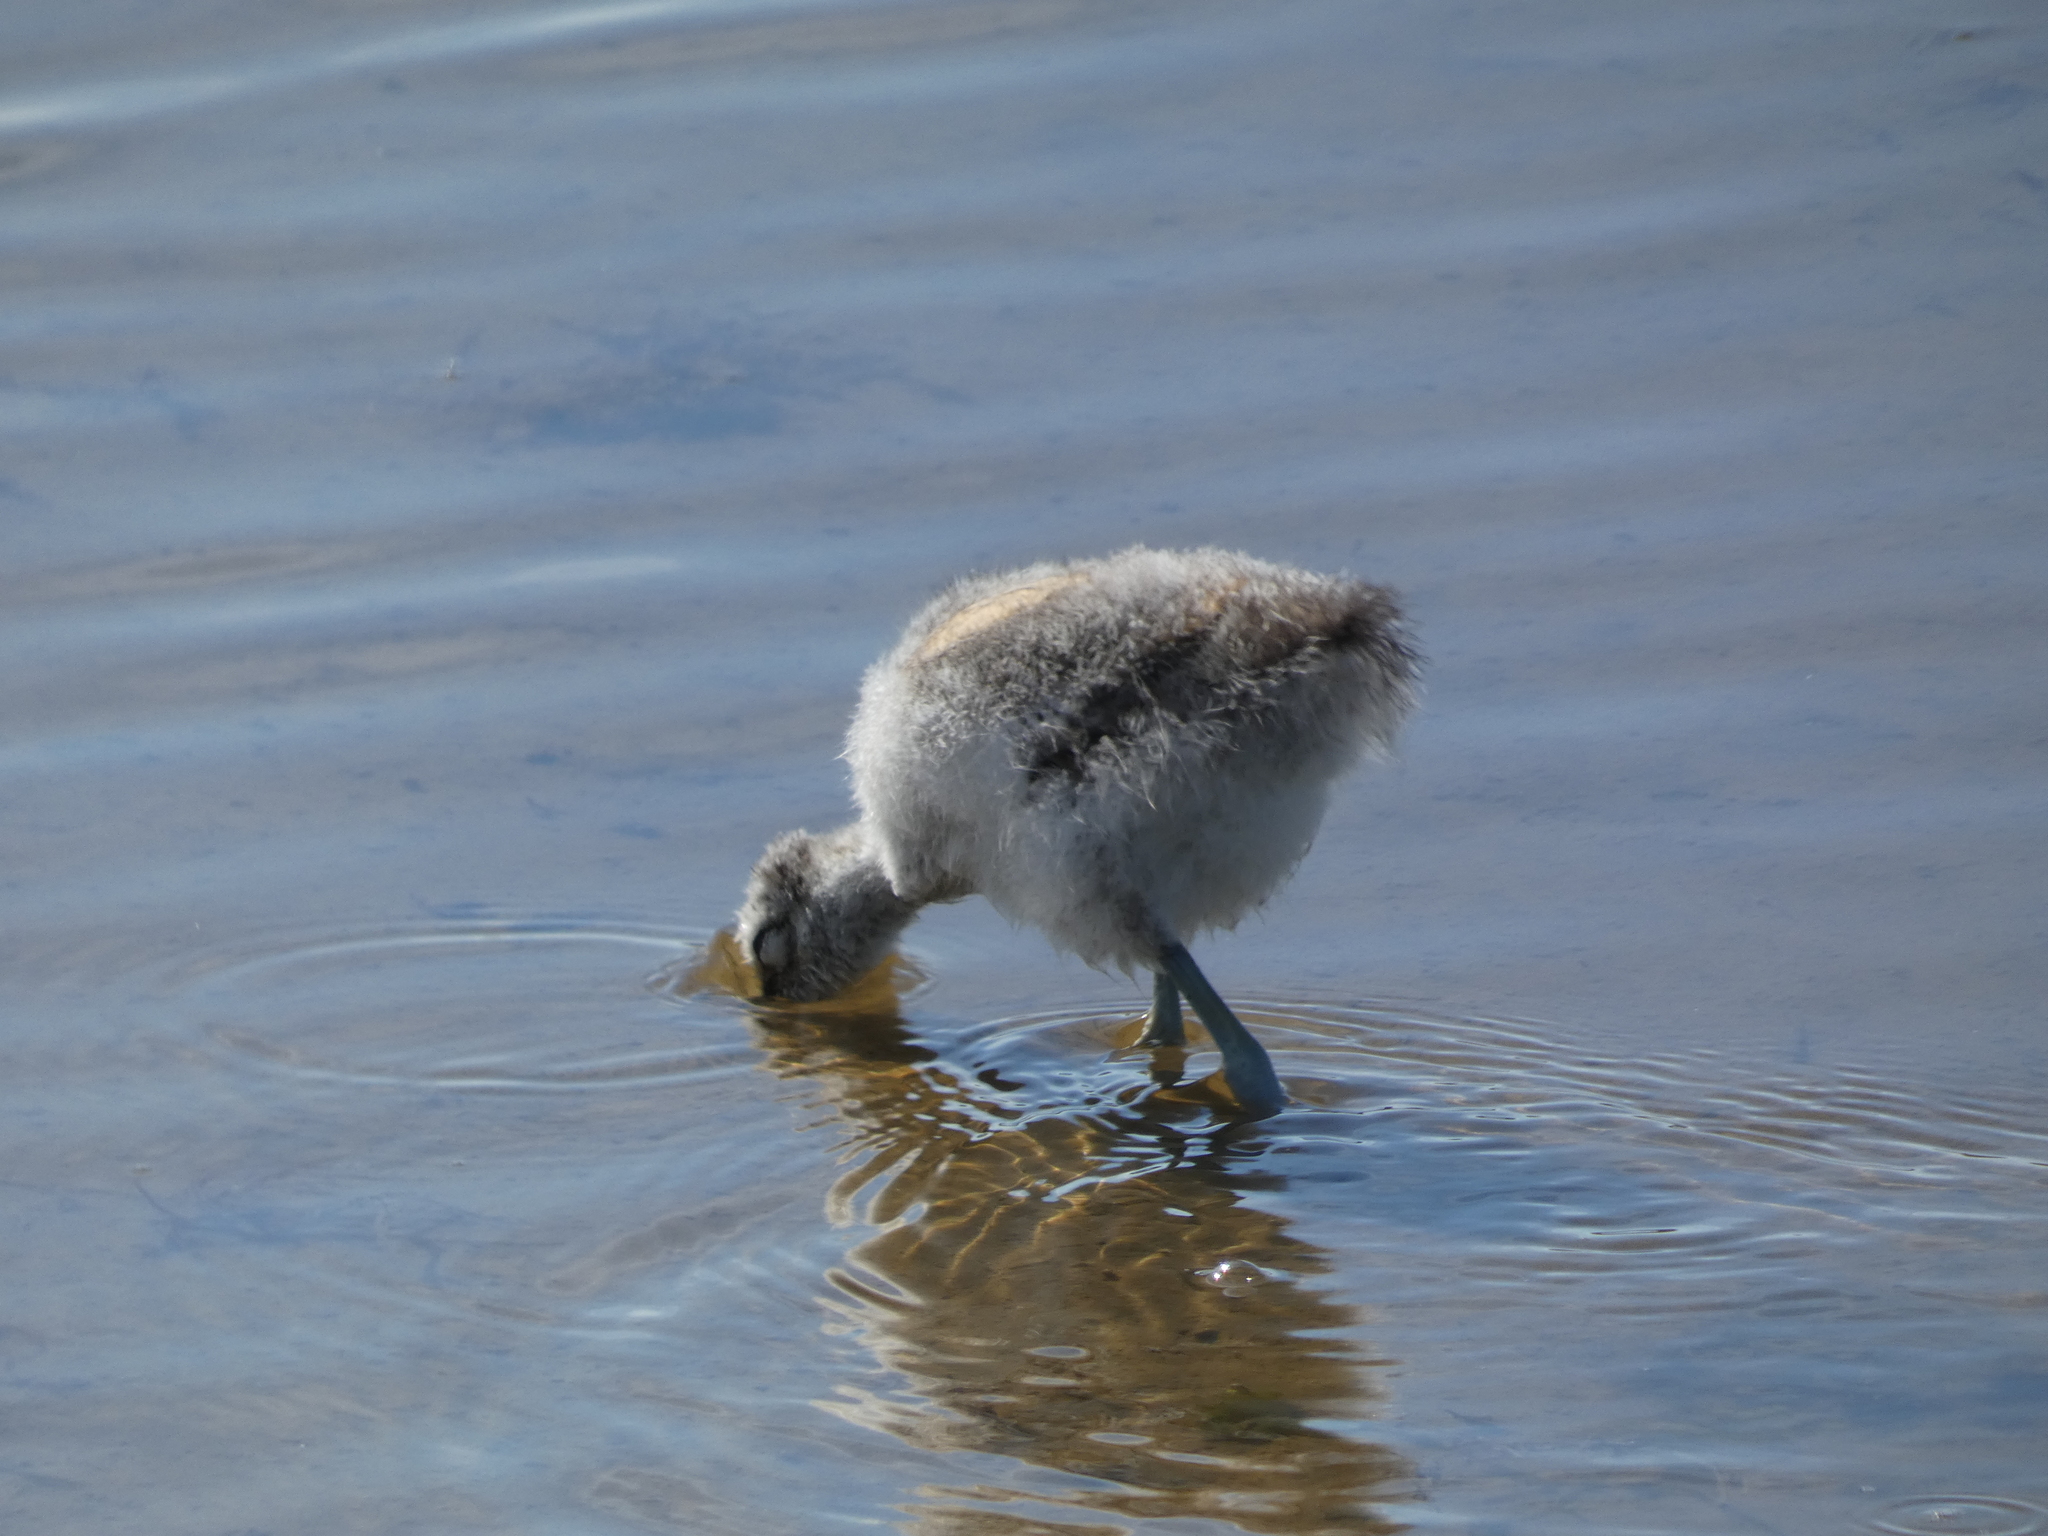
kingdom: Animalia
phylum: Chordata
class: Aves
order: Charadriiformes
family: Recurvirostridae
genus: Recurvirostra
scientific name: Recurvirostra avosetta
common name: Pied avocet
